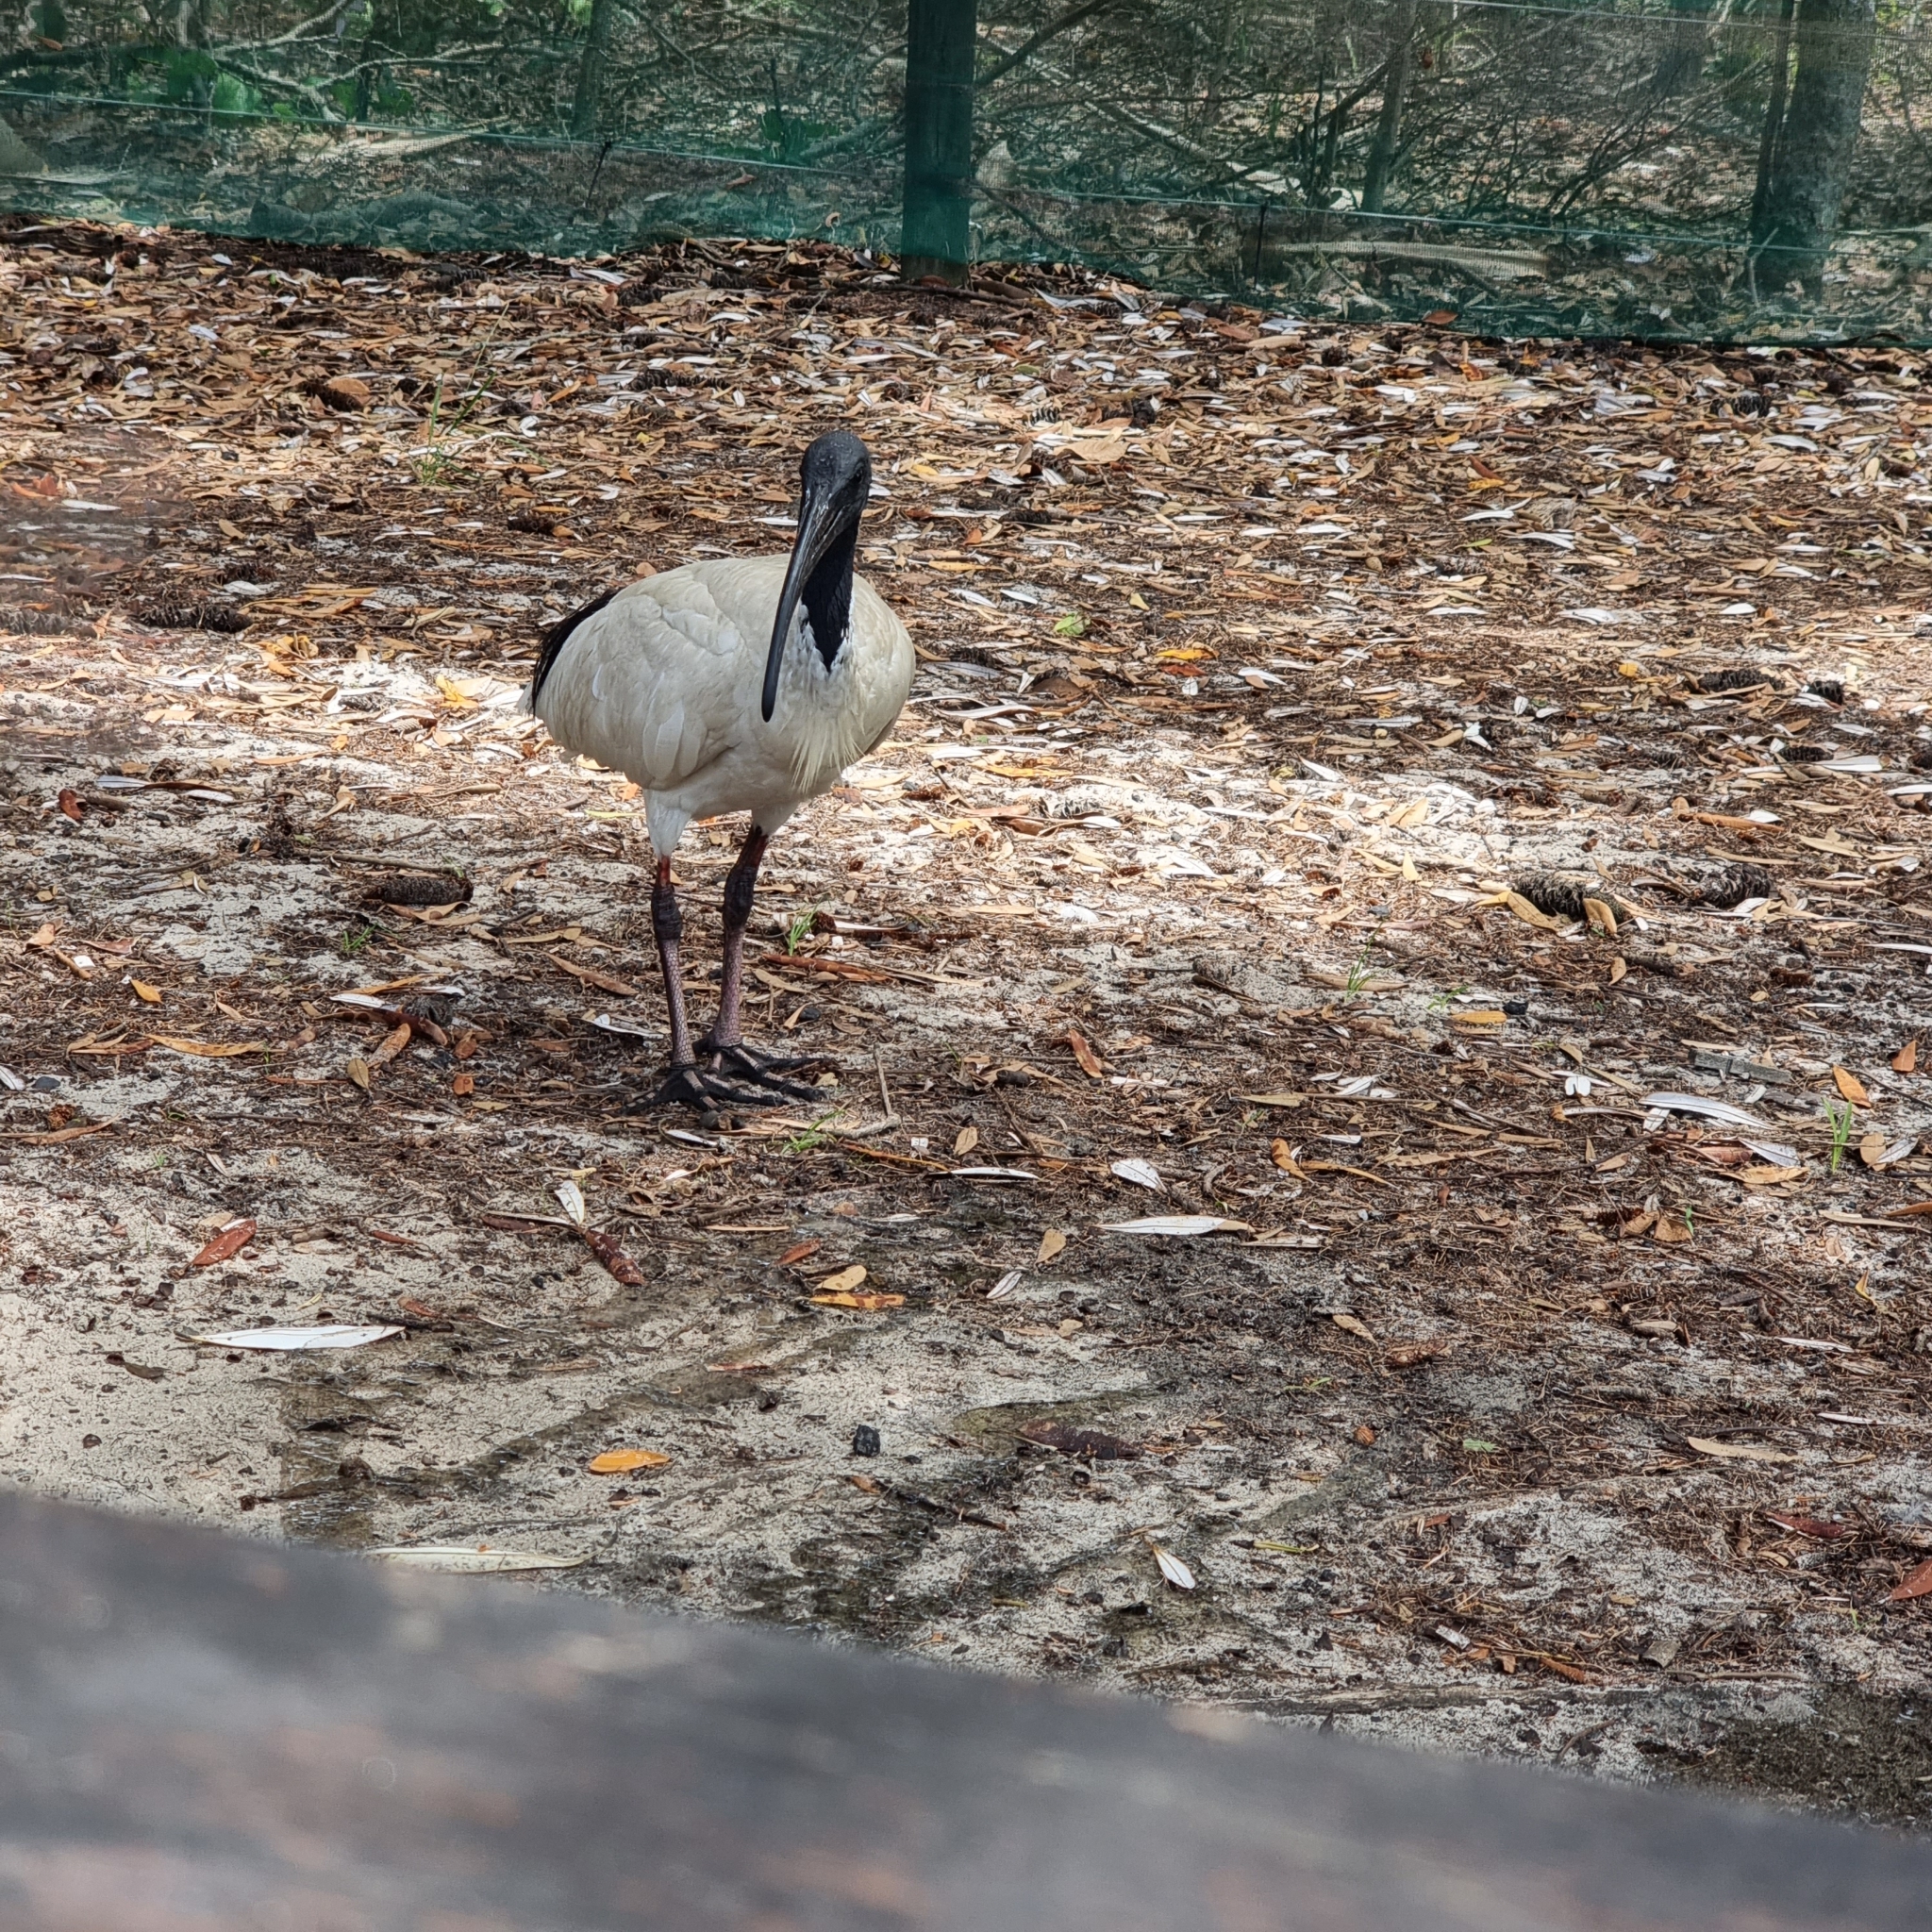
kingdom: Animalia
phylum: Chordata
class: Aves
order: Pelecaniformes
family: Threskiornithidae
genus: Threskiornis
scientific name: Threskiornis molucca
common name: Australian white ibis
